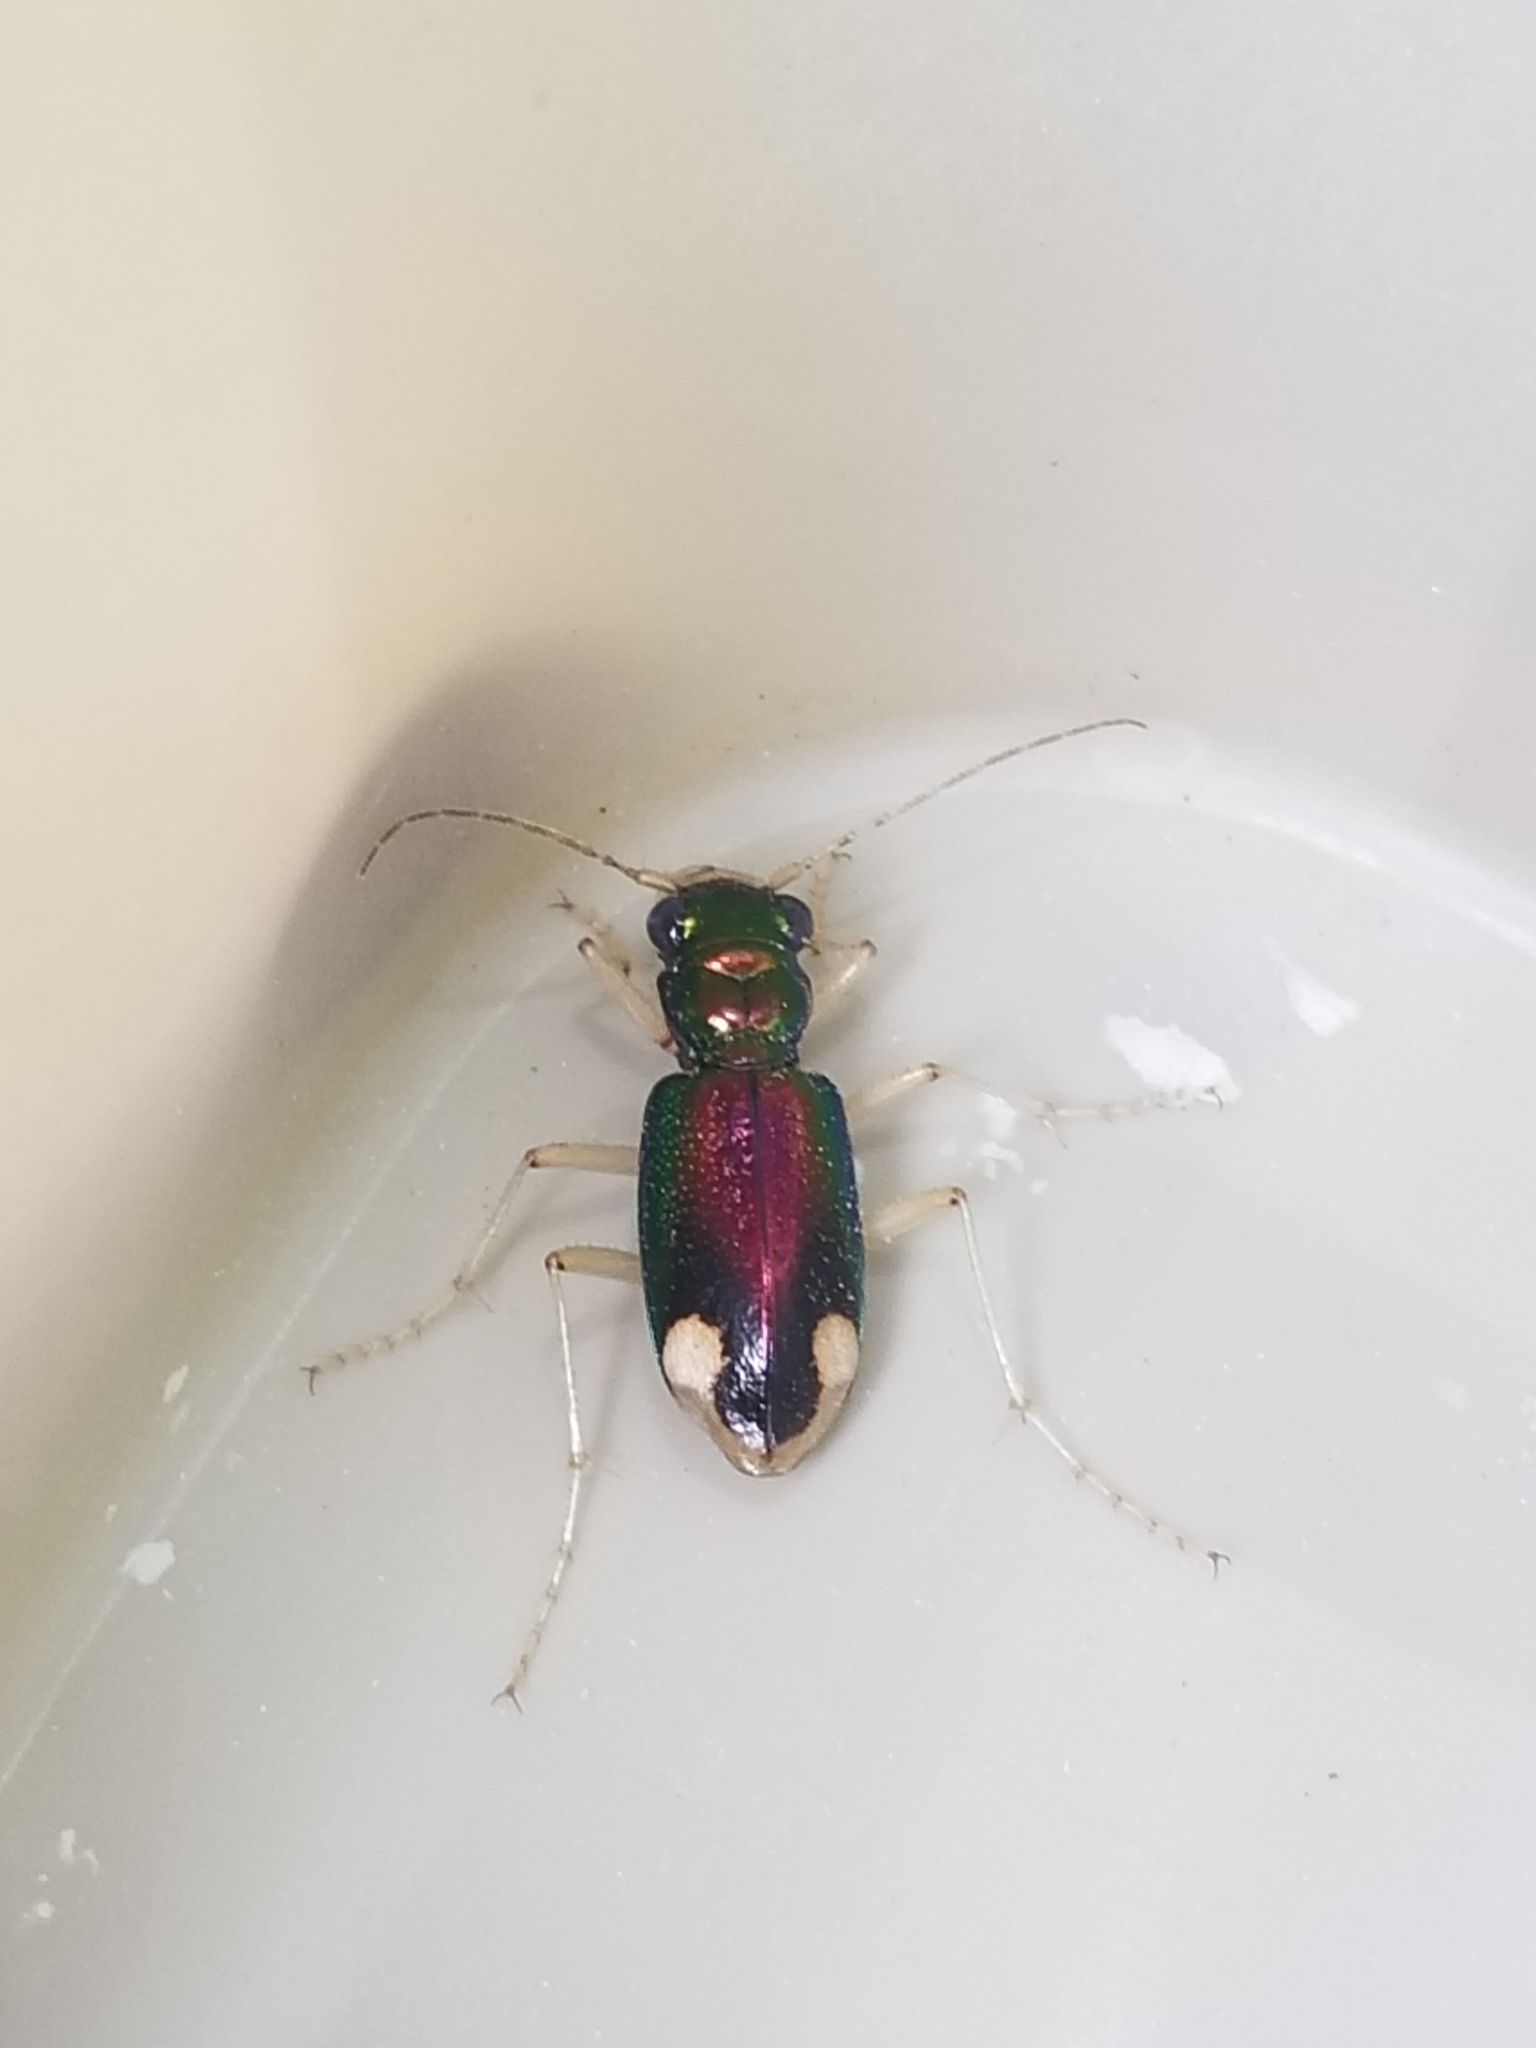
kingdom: Animalia
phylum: Arthropoda
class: Insecta
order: Coleoptera
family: Carabidae
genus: Tetracha
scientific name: Tetracha carolina
